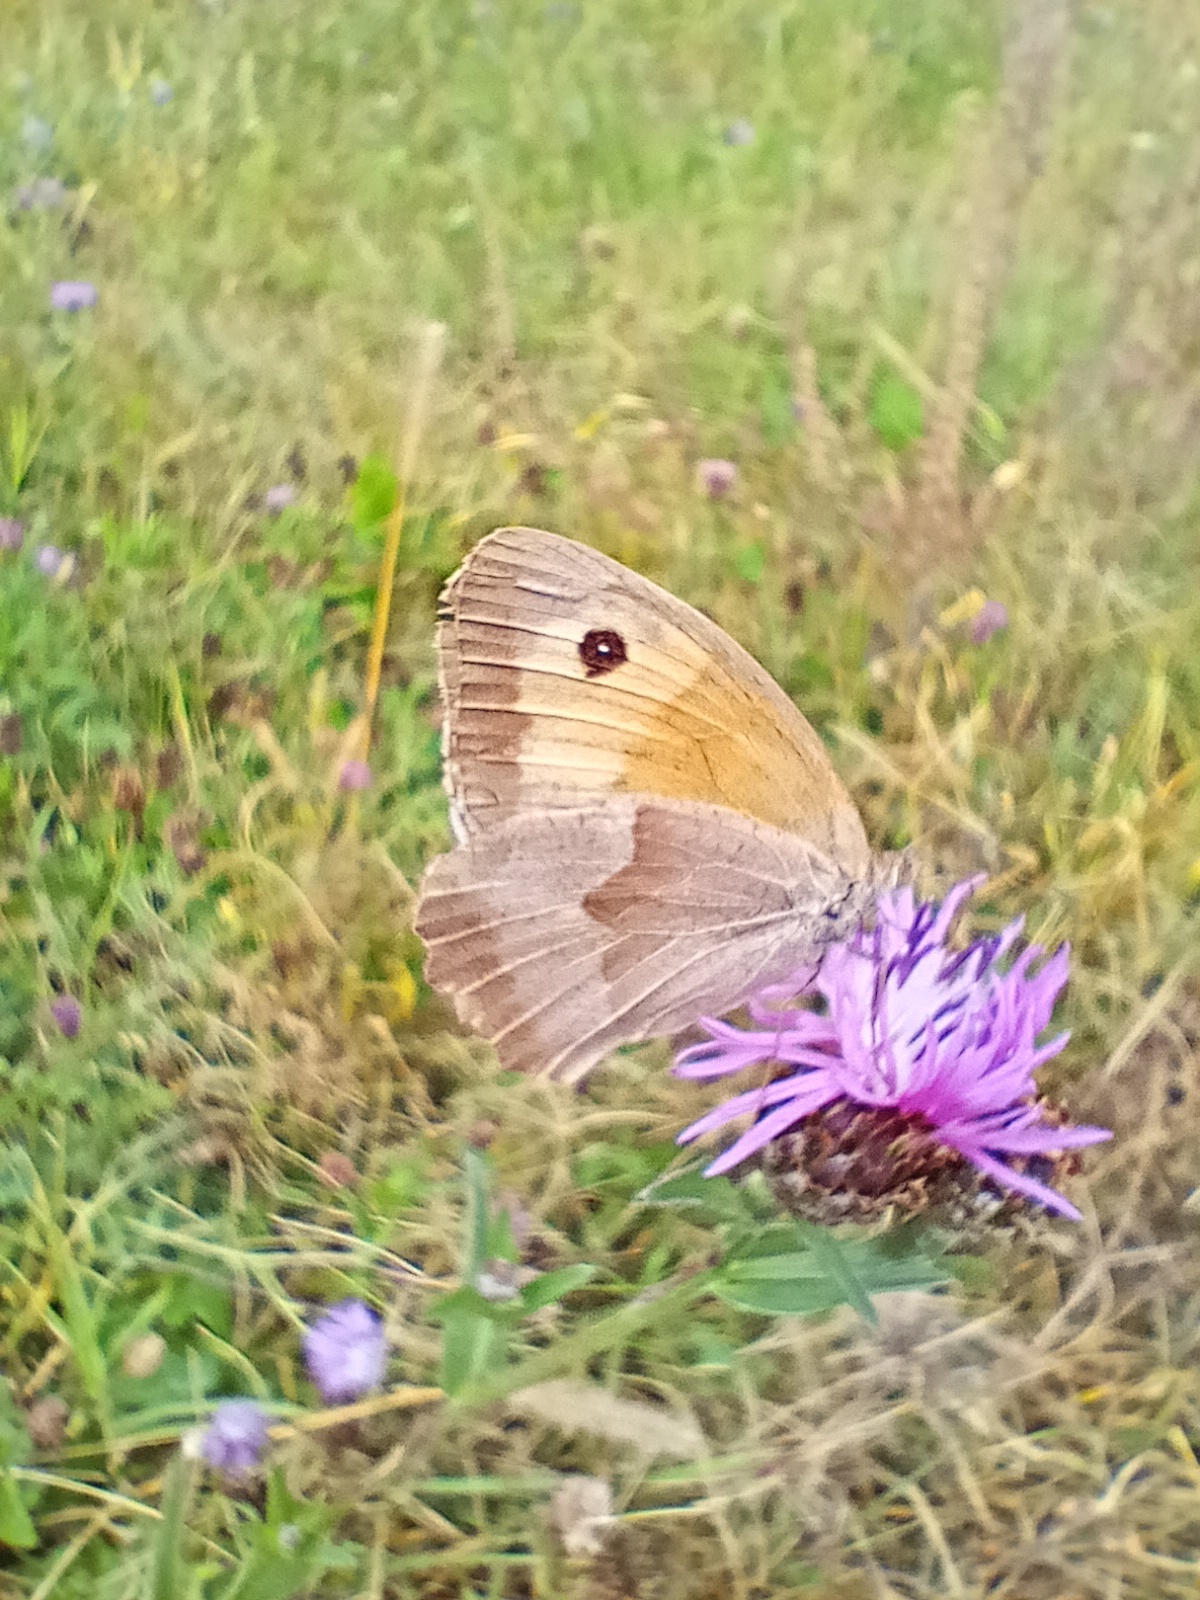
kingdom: Animalia
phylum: Arthropoda
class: Insecta
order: Lepidoptera
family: Nymphalidae
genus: Maniola
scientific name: Maniola jurtina
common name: Meadow brown
